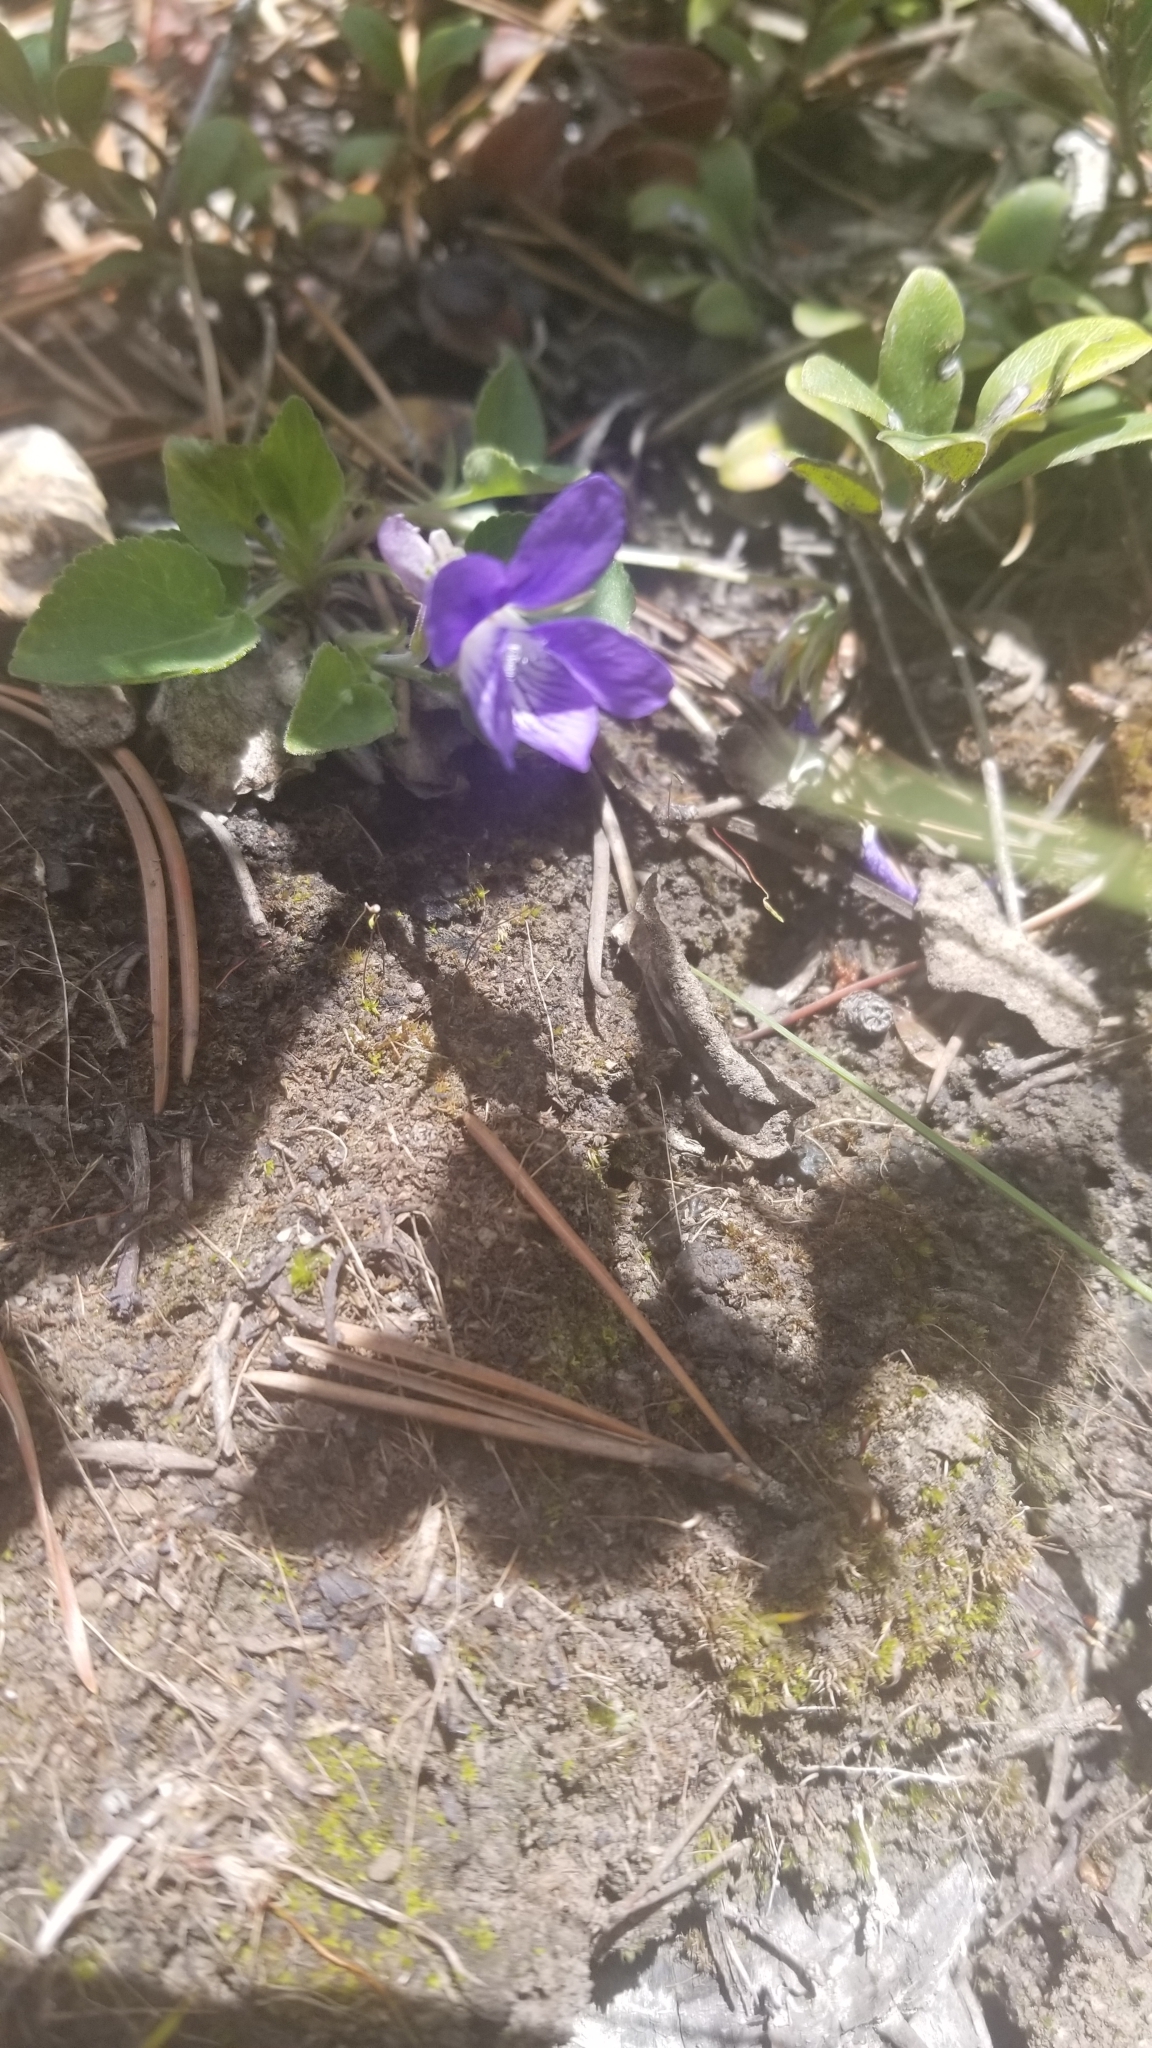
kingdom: Plantae
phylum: Tracheophyta
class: Magnoliopsida
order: Malpighiales
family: Violaceae
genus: Viola
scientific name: Viola adunca
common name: Sand violet
